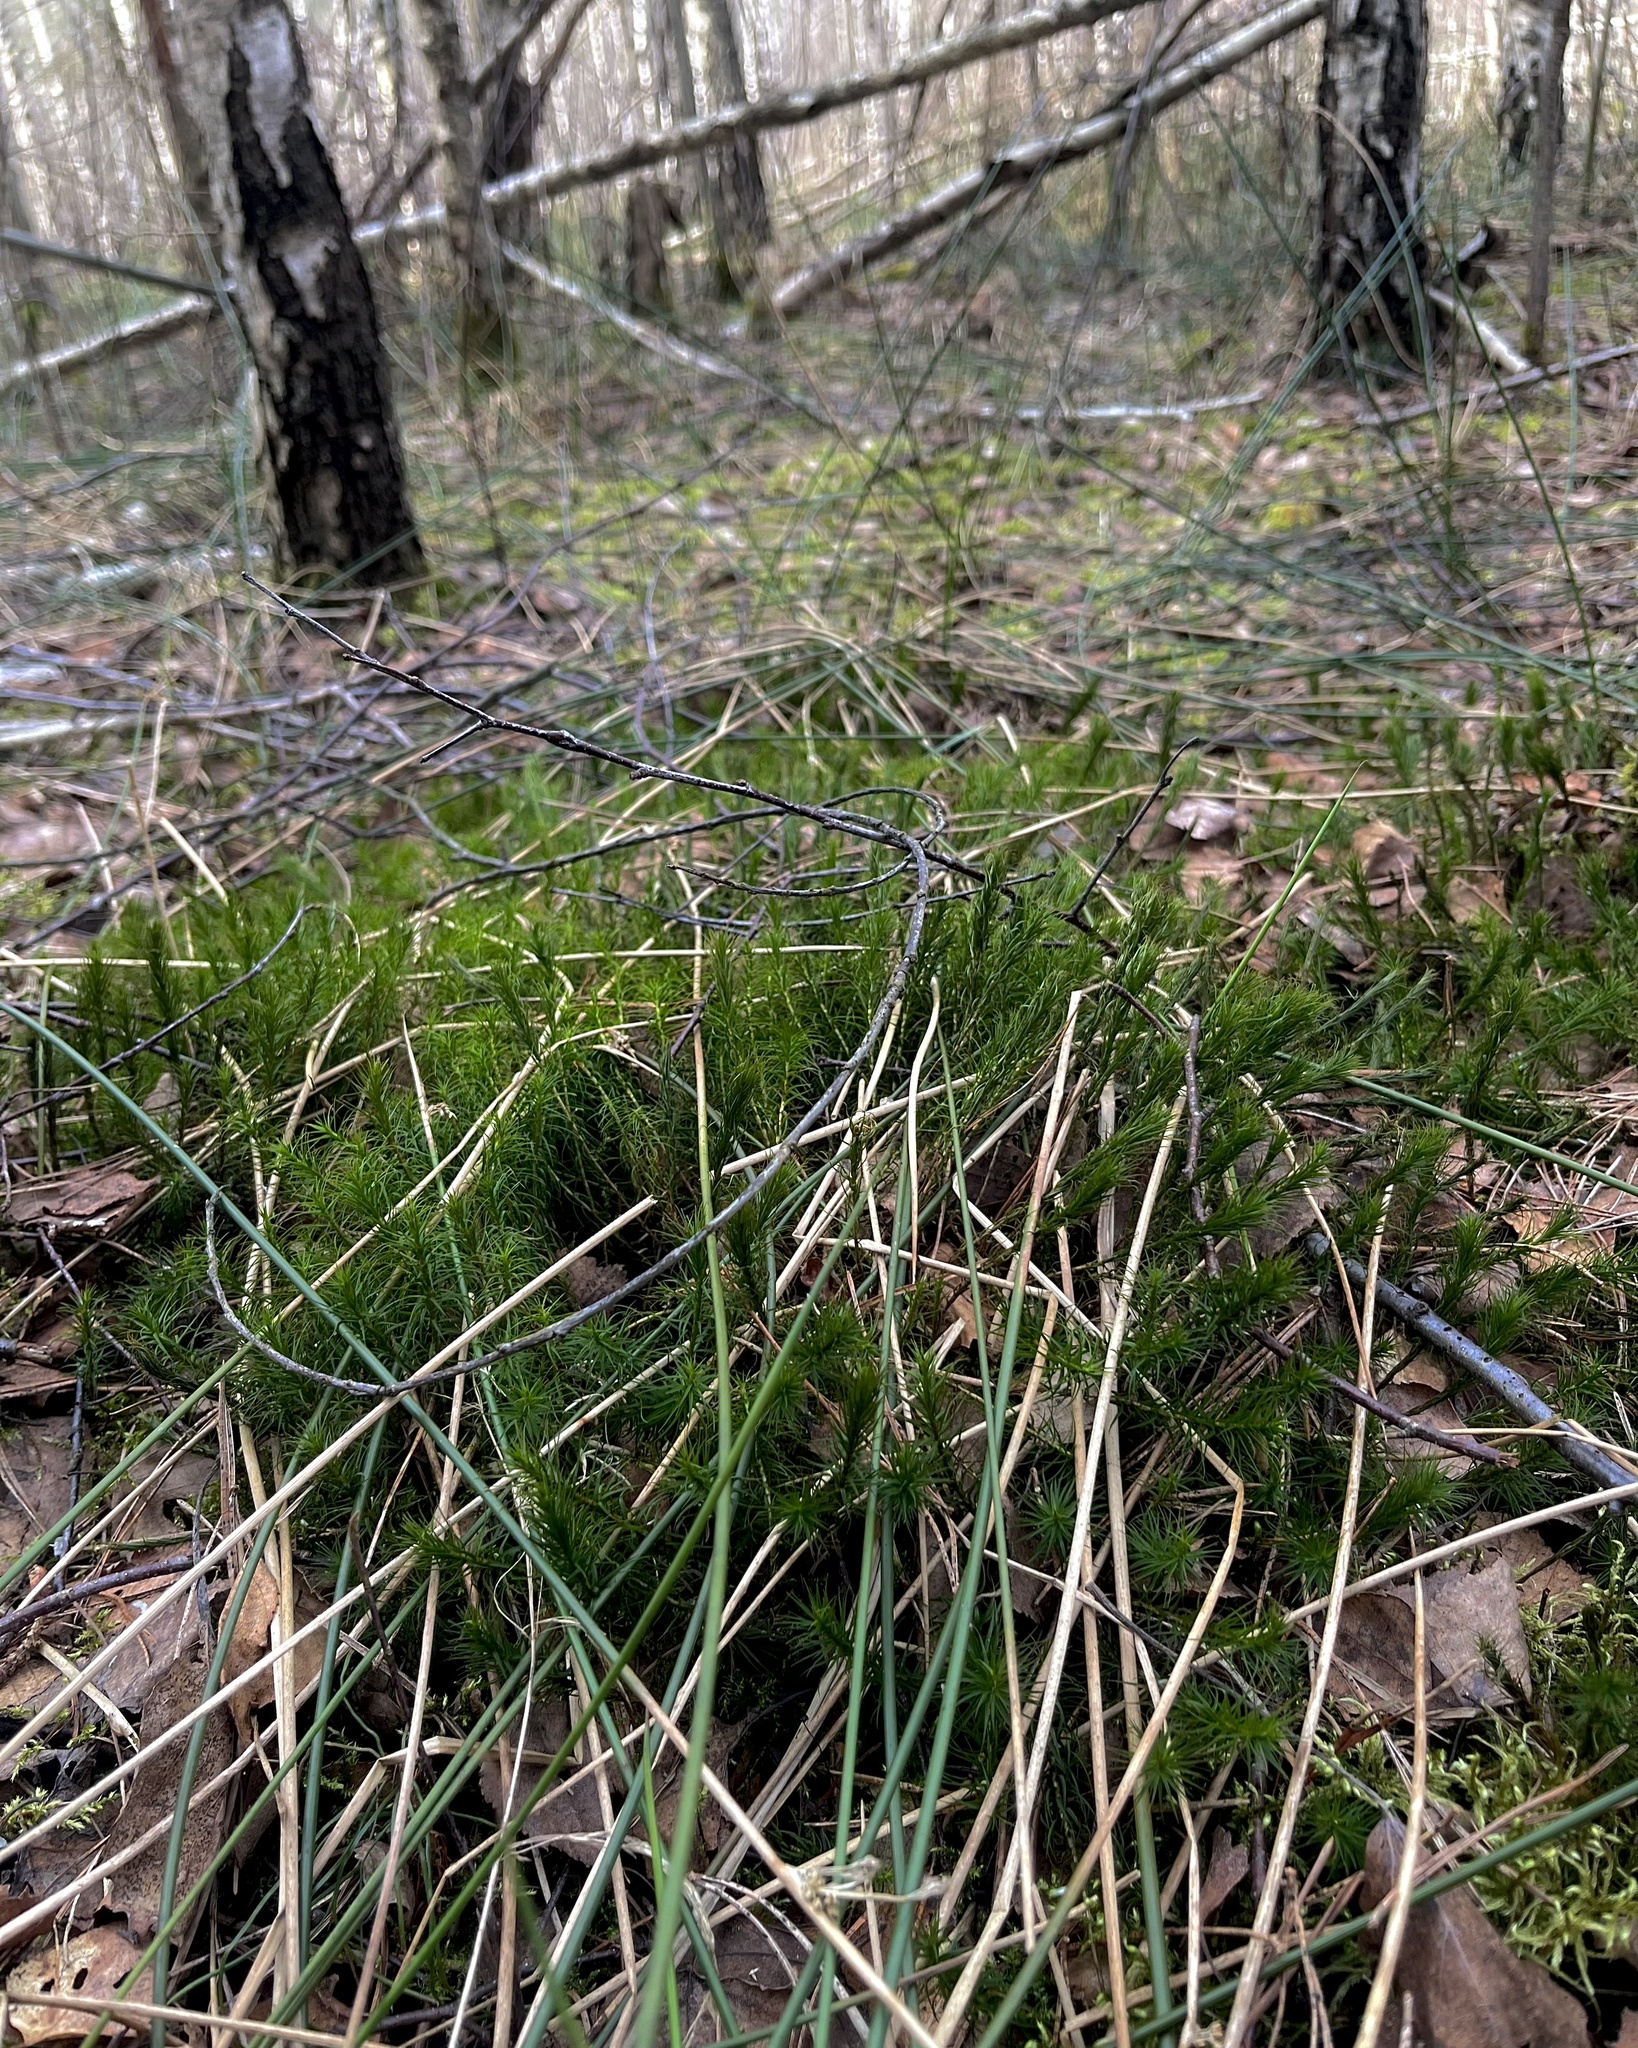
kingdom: Plantae
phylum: Bryophyta
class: Polytrichopsida
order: Polytrichales
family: Polytrichaceae
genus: Polytrichum
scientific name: Polytrichum commune
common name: Common haircap
